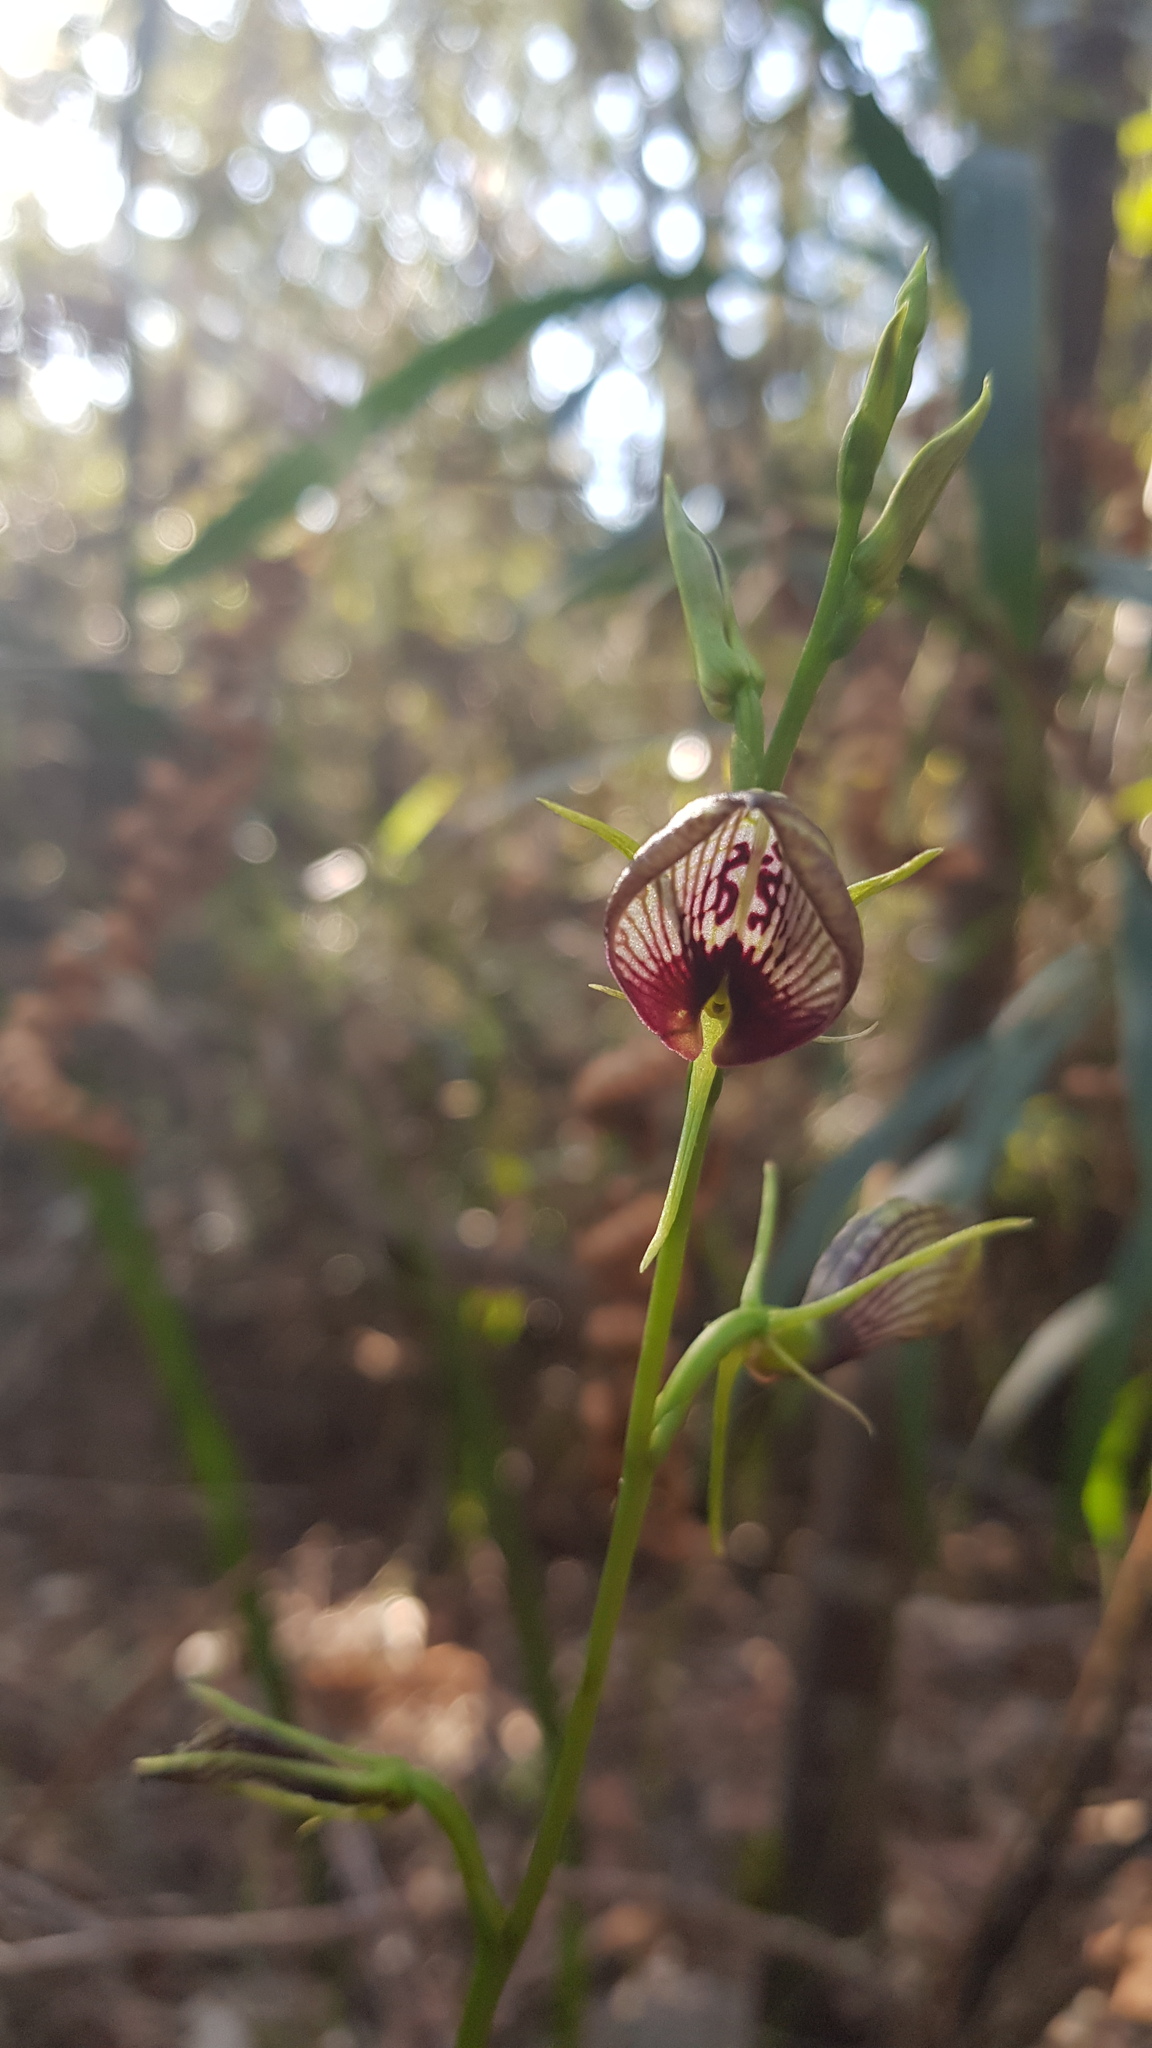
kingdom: Plantae
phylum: Tracheophyta
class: Liliopsida
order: Asparagales
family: Orchidaceae
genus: Cryptostylis
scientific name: Cryptostylis erecta
